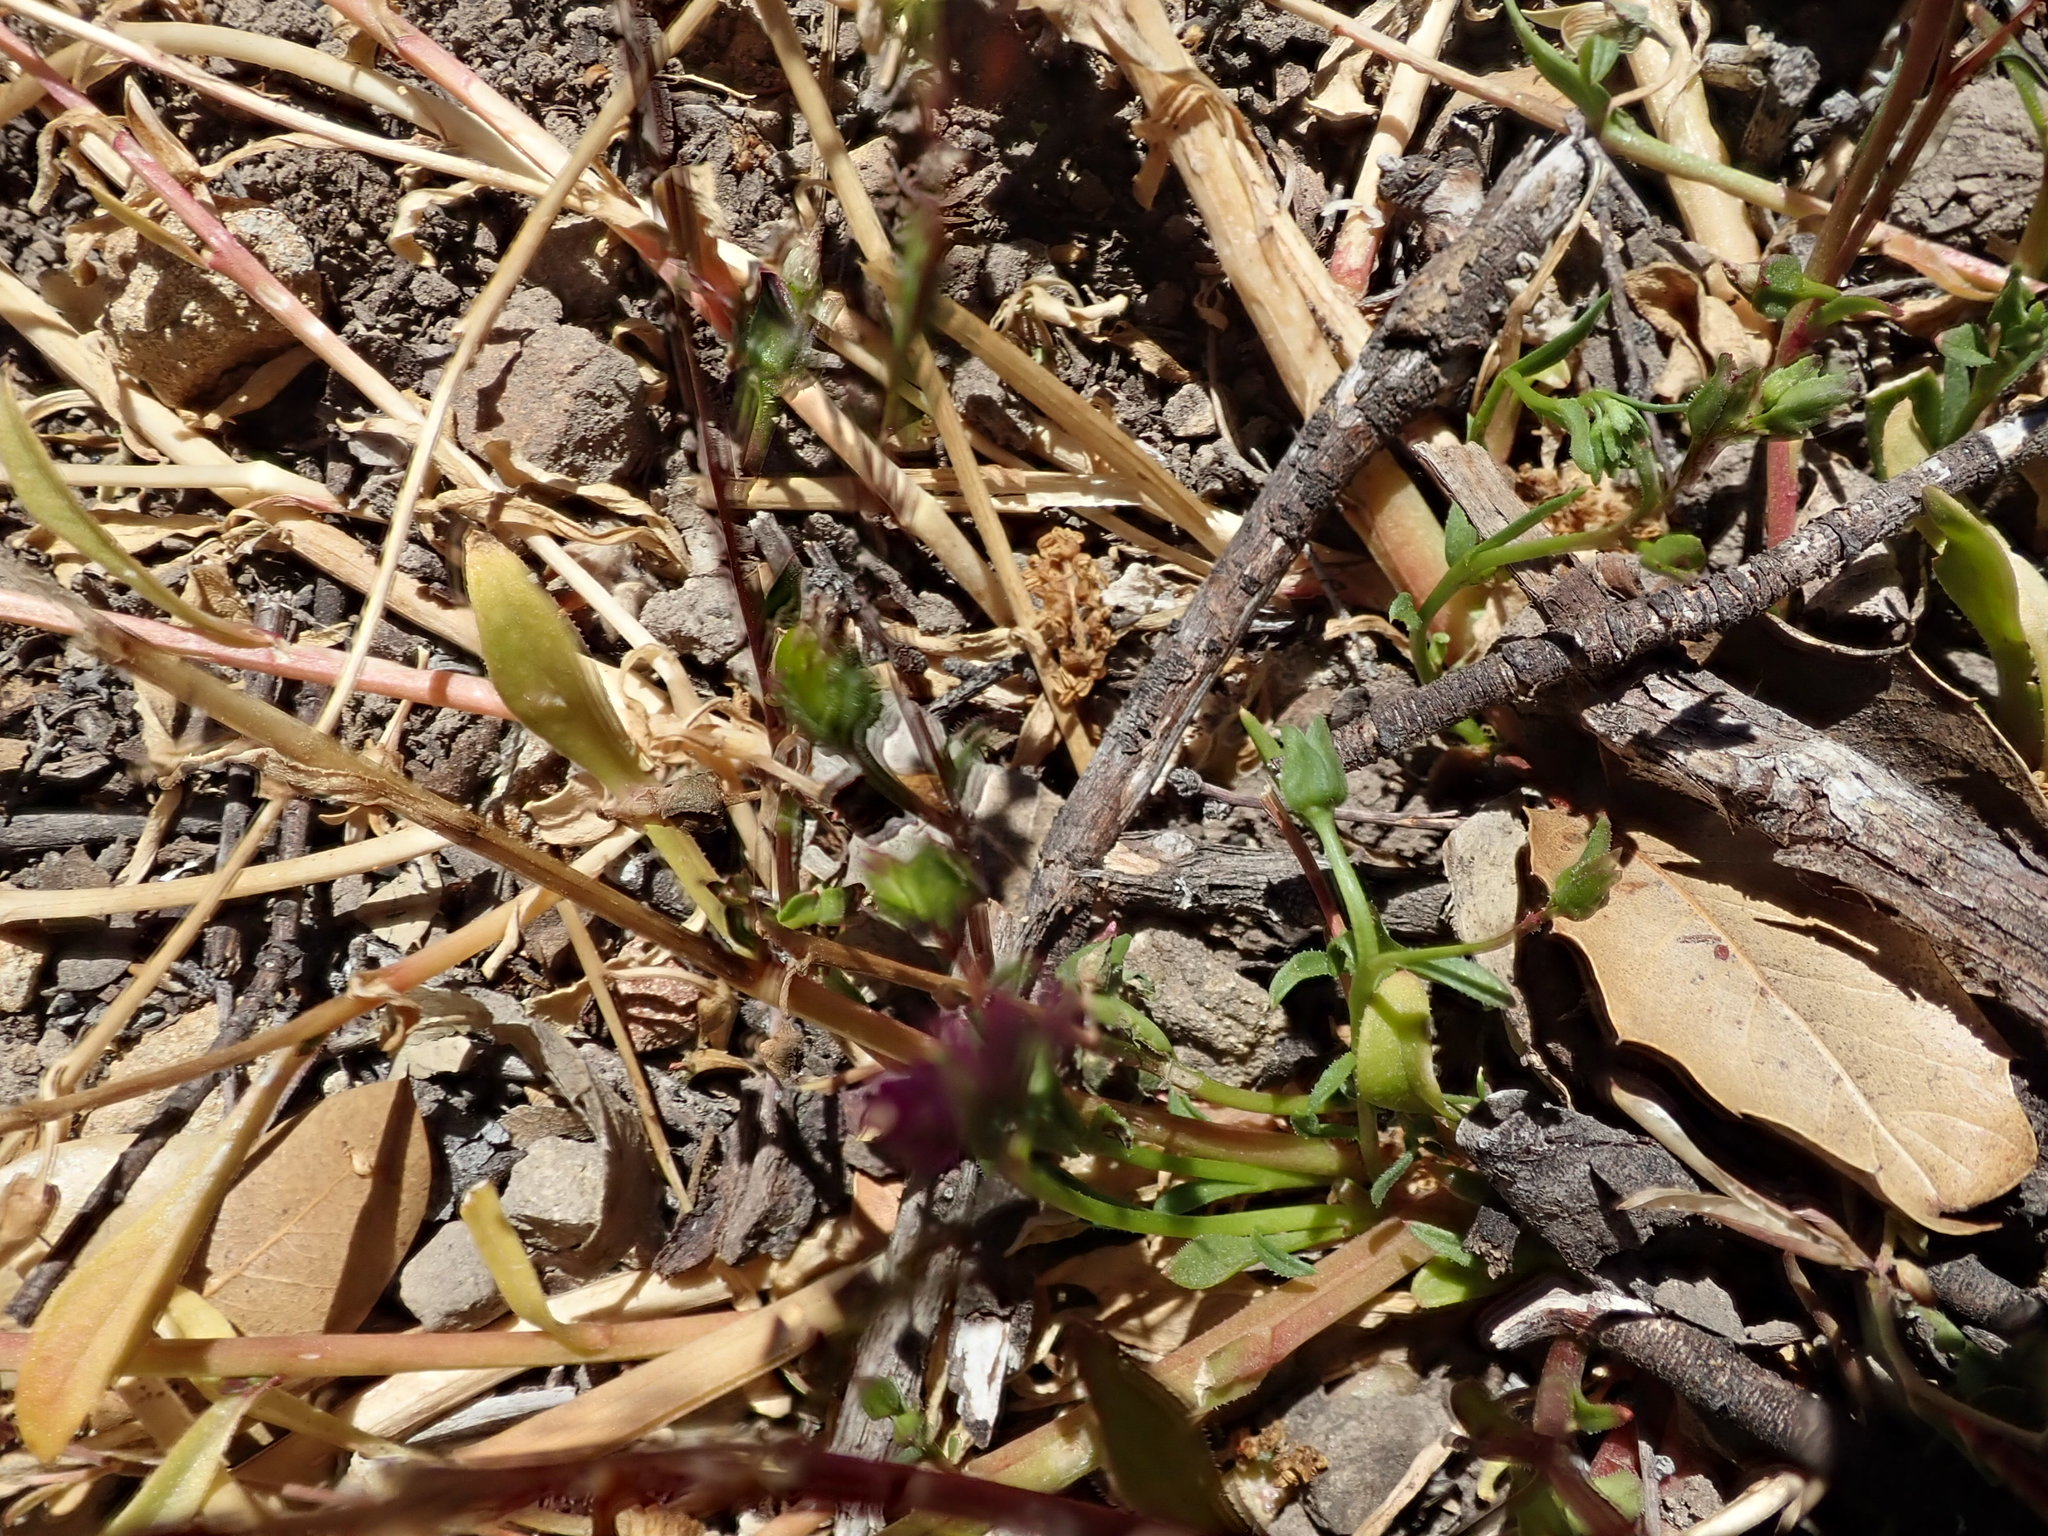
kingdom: Plantae
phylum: Tracheophyta
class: Magnoliopsida
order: Caryophyllales
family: Montiaceae
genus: Calandrinia
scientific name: Calandrinia breweri
